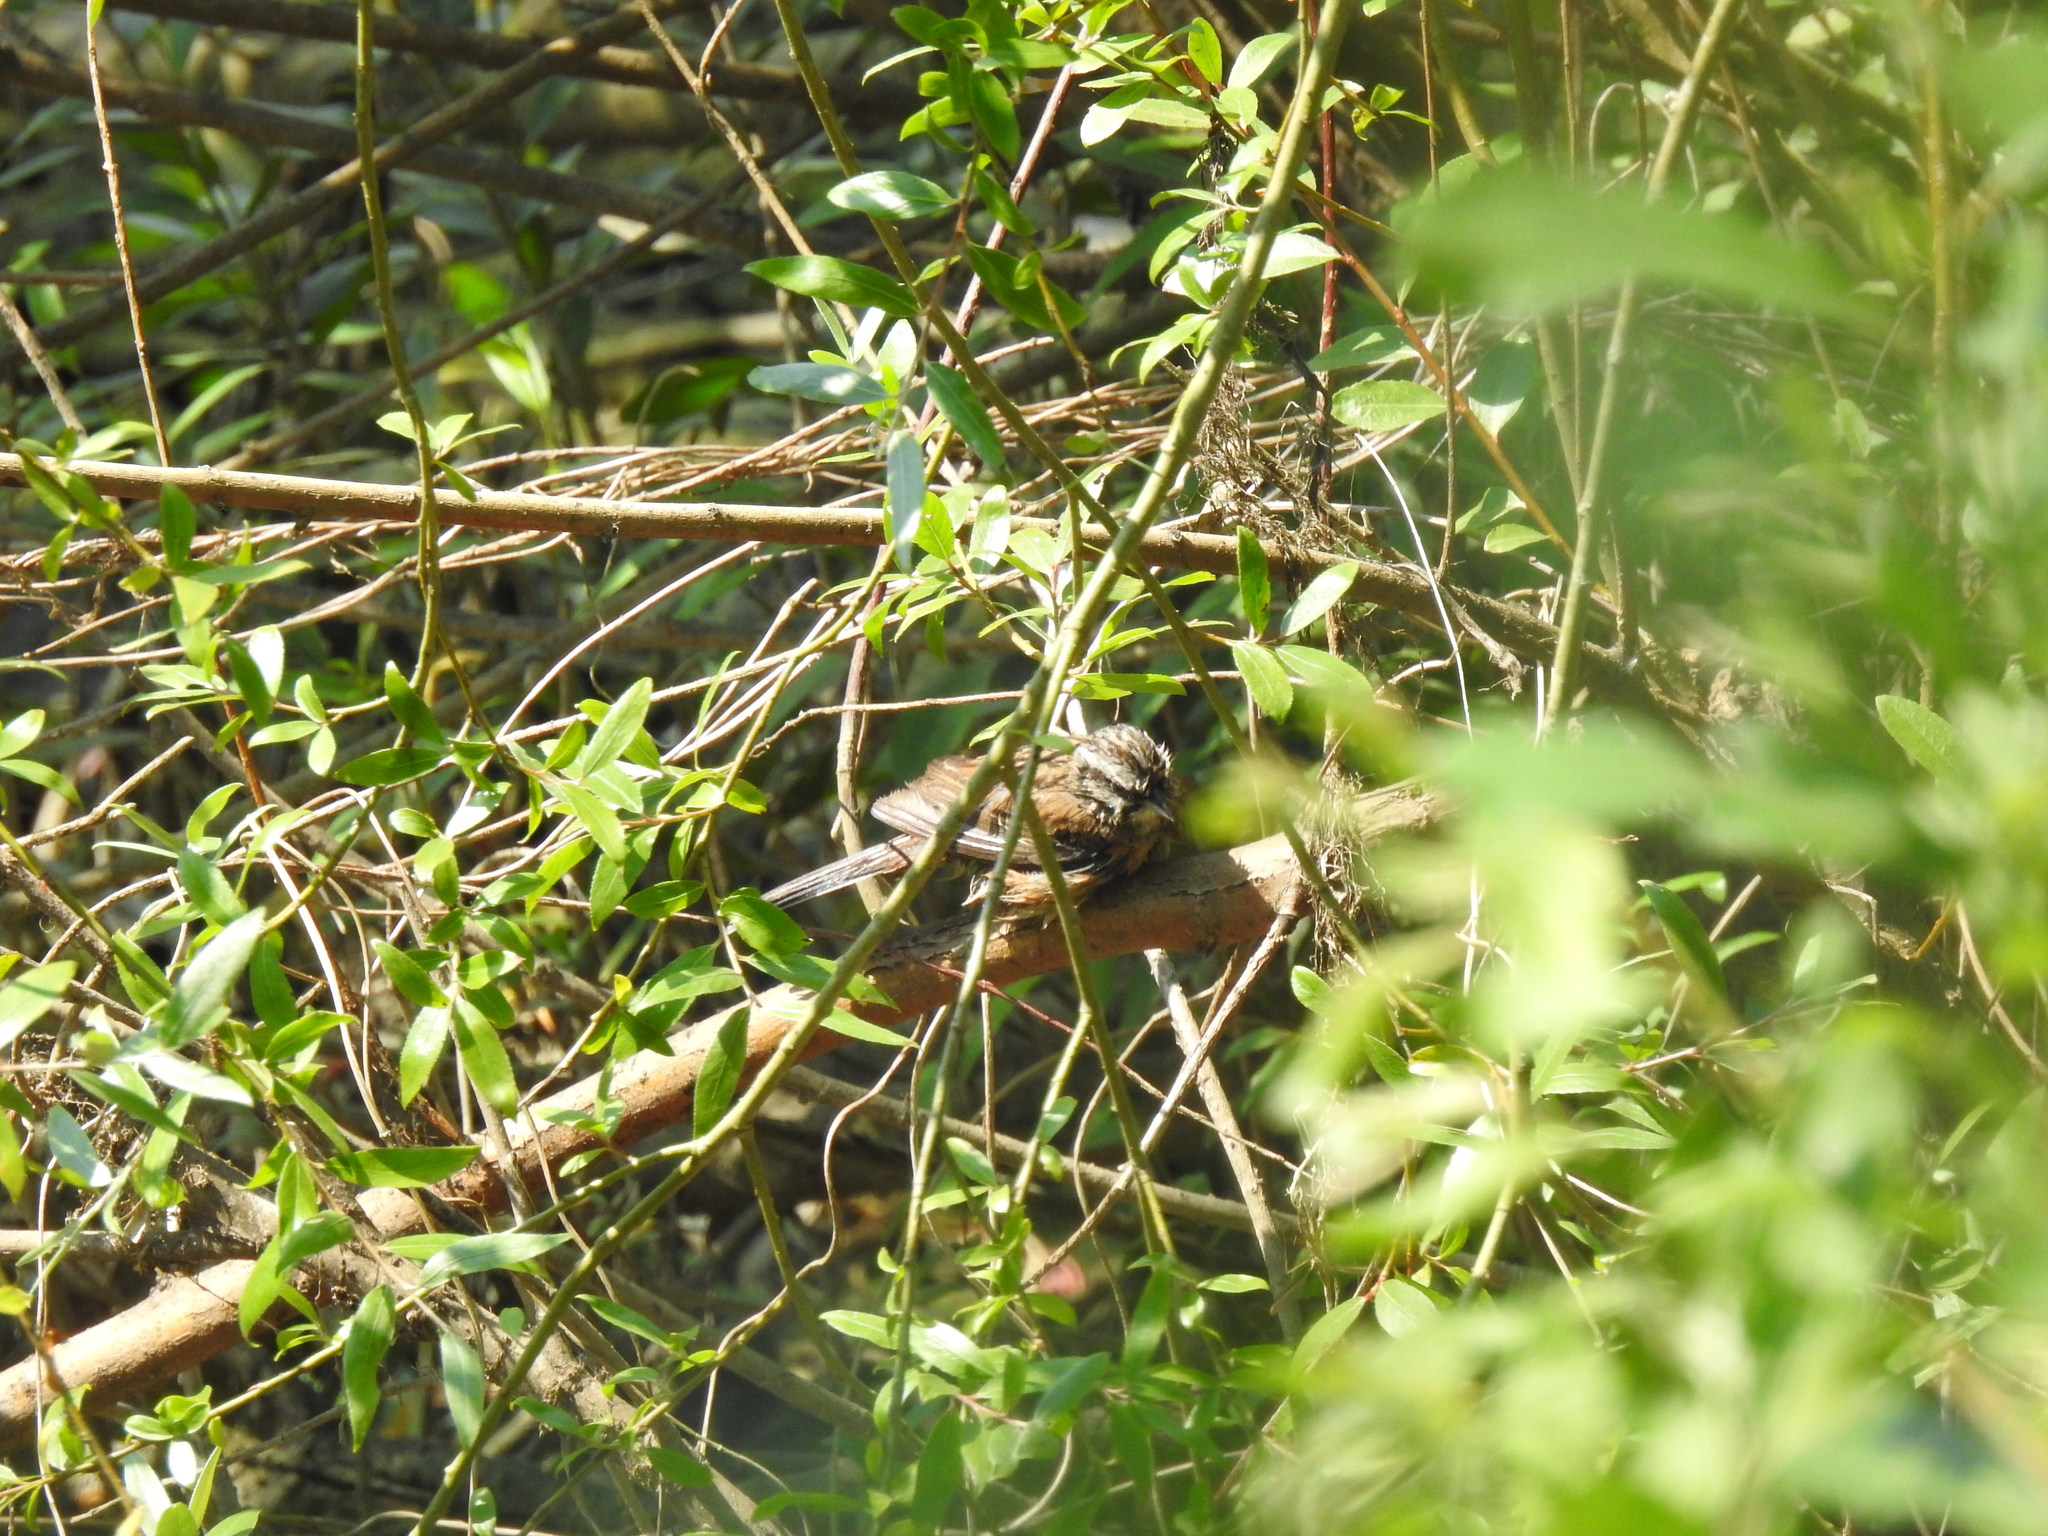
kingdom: Animalia
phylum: Chordata
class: Aves
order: Passeriformes
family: Emberizidae
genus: Emberiza
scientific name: Emberiza cia
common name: Rock bunting
